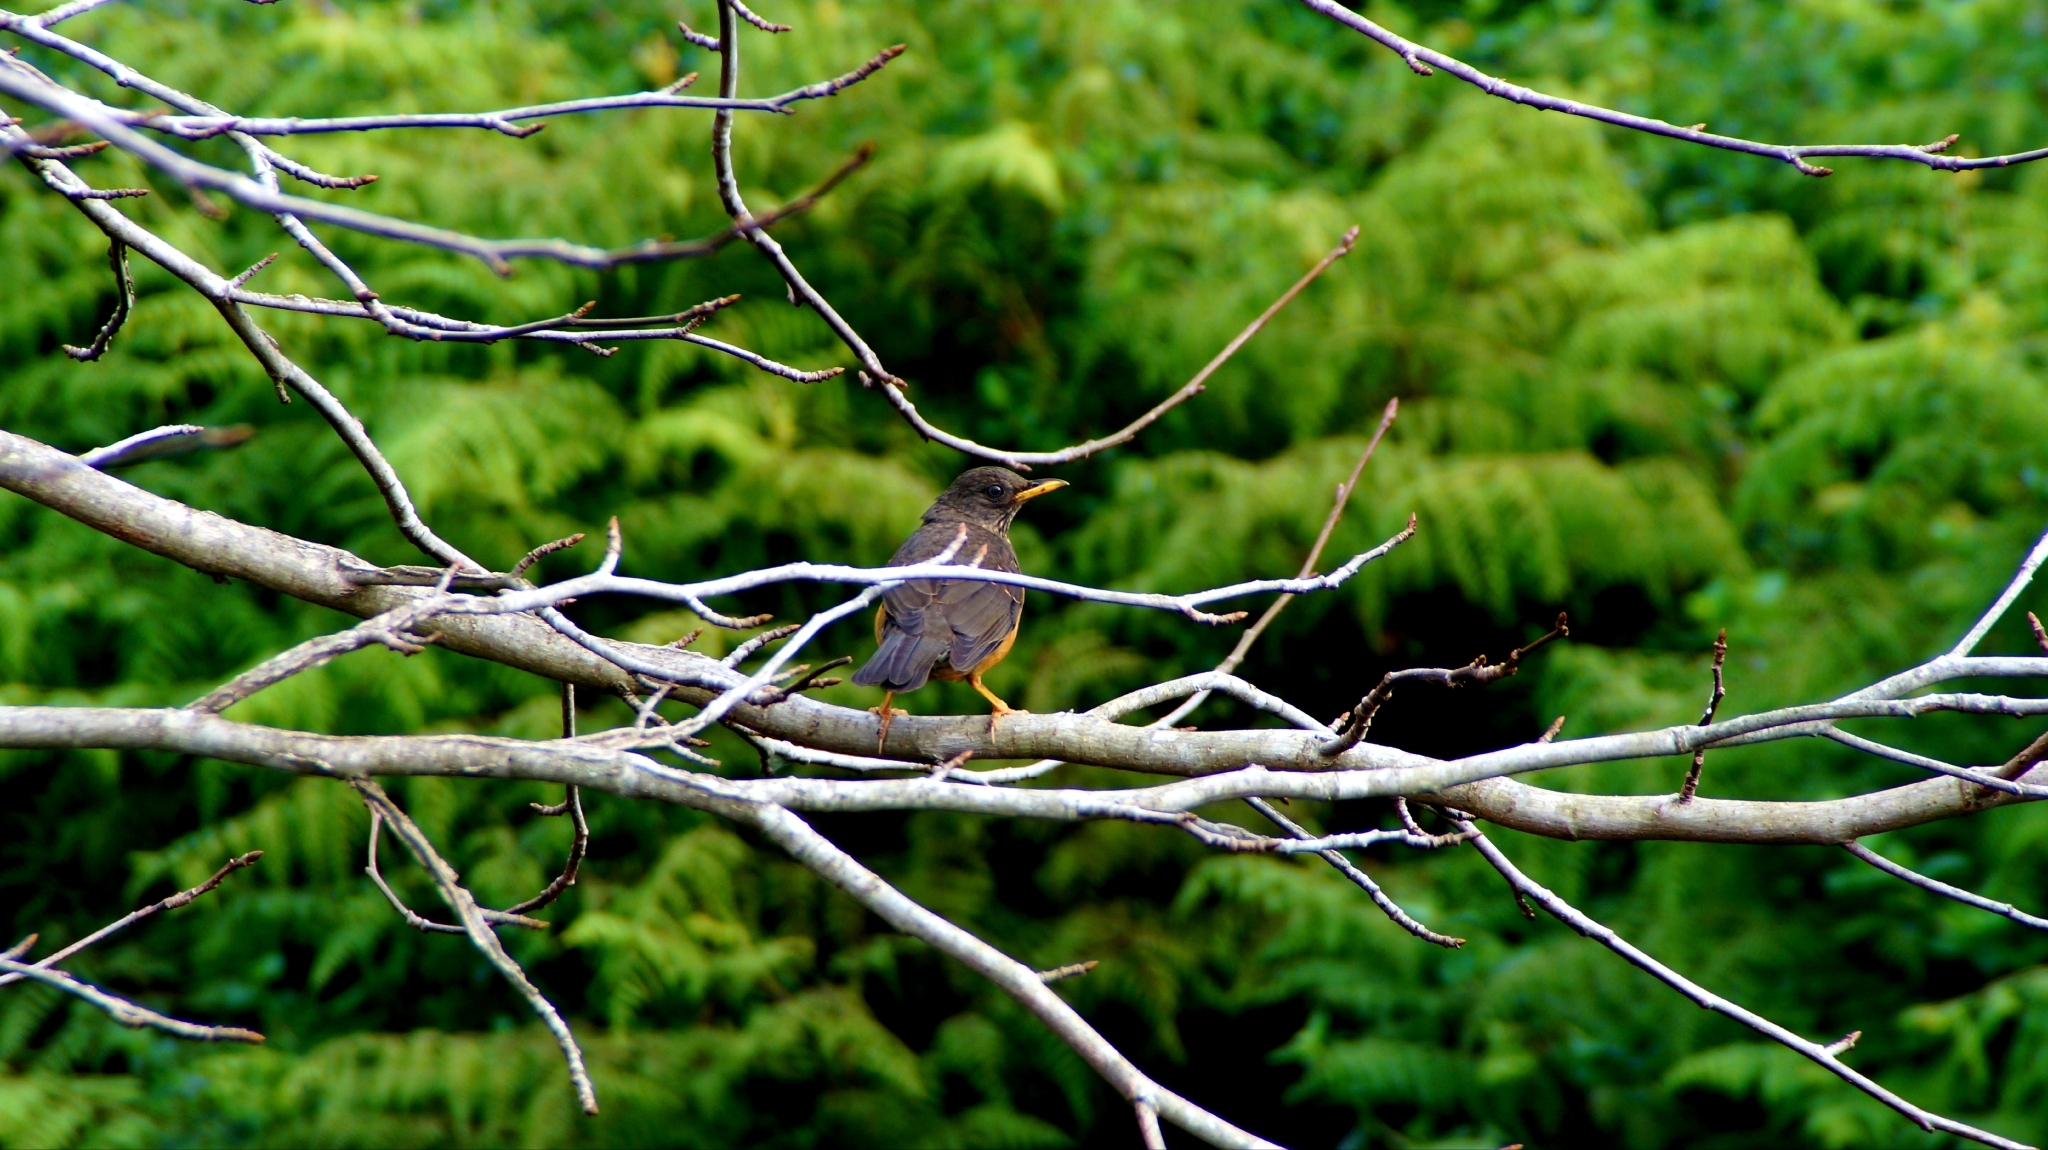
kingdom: Animalia
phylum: Chordata
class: Aves
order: Passeriformes
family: Turdidae
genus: Turdus
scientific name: Turdus olivaceus
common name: Olive thrush
